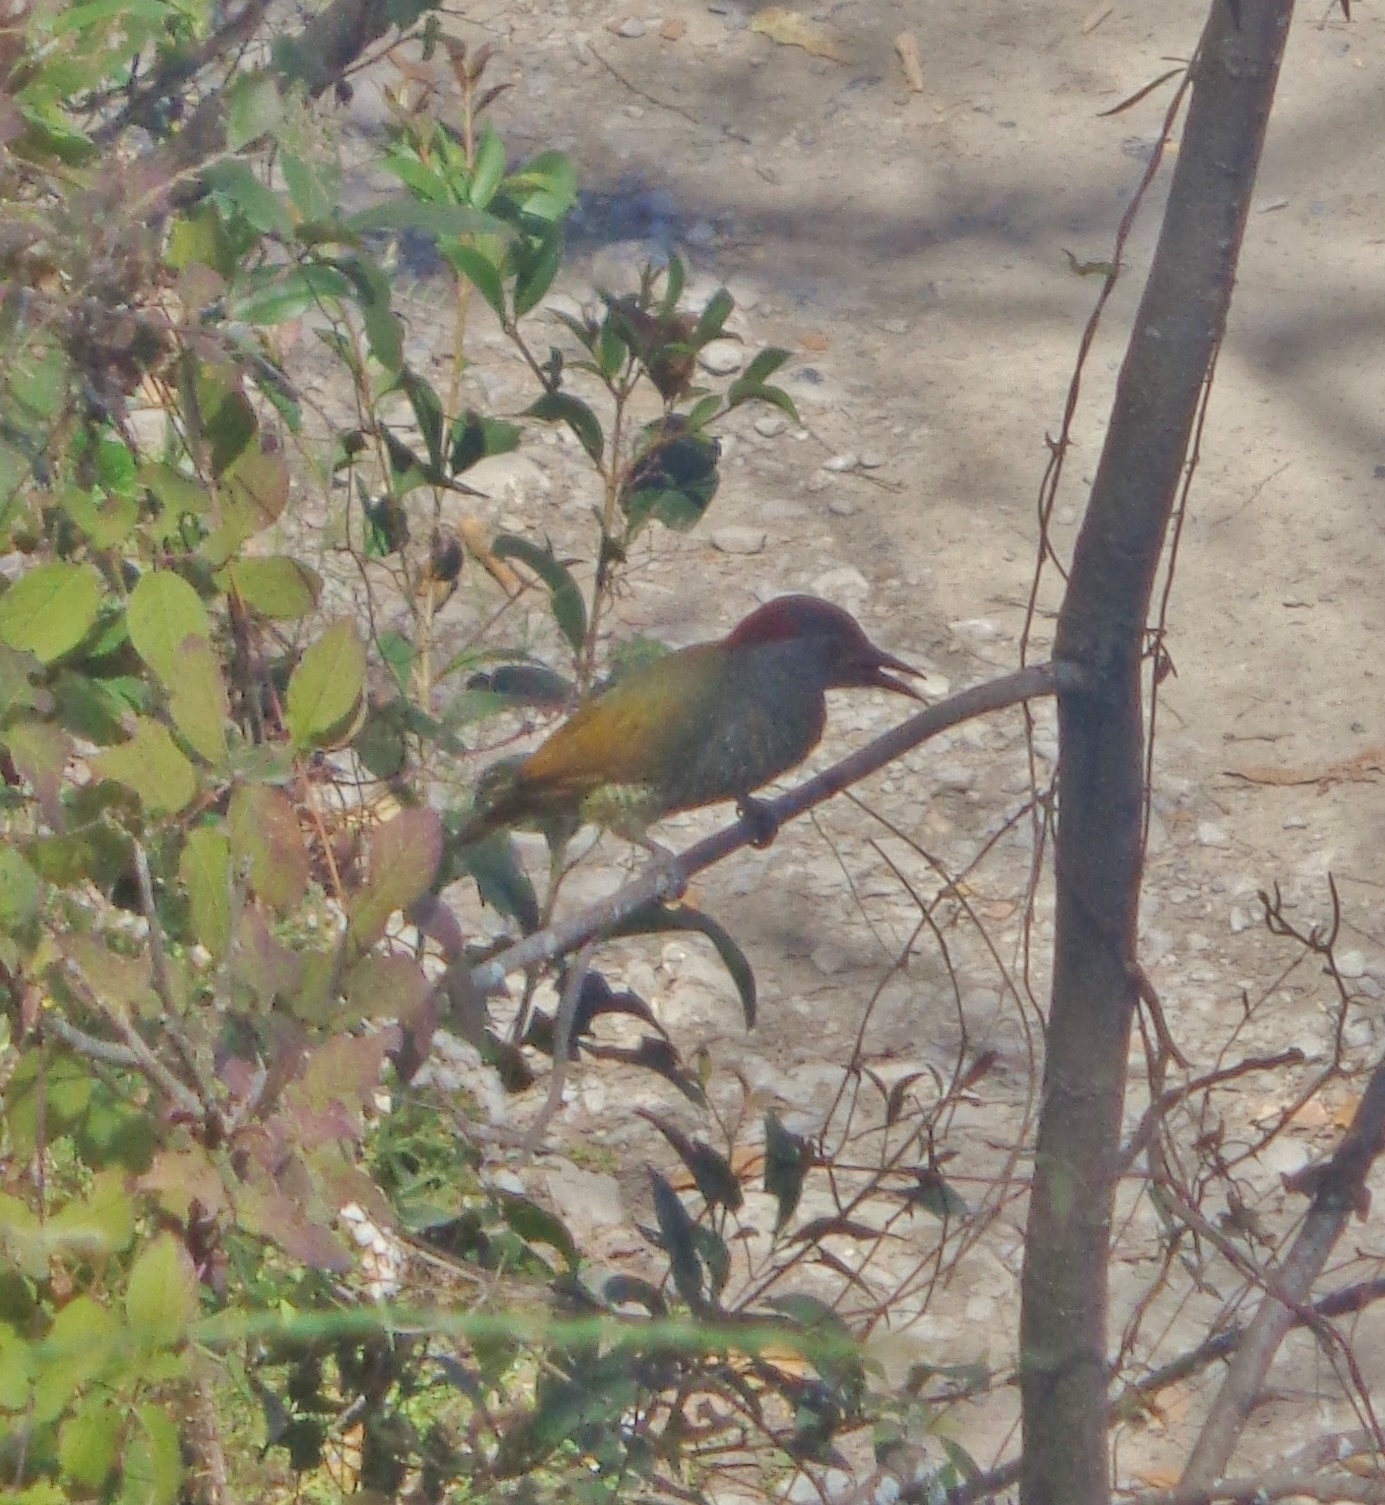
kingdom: Animalia
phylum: Chordata
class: Aves
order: Piciformes
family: Picidae
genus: Colaptes
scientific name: Colaptes rubiginosus
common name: Golden-olive woodpecker
